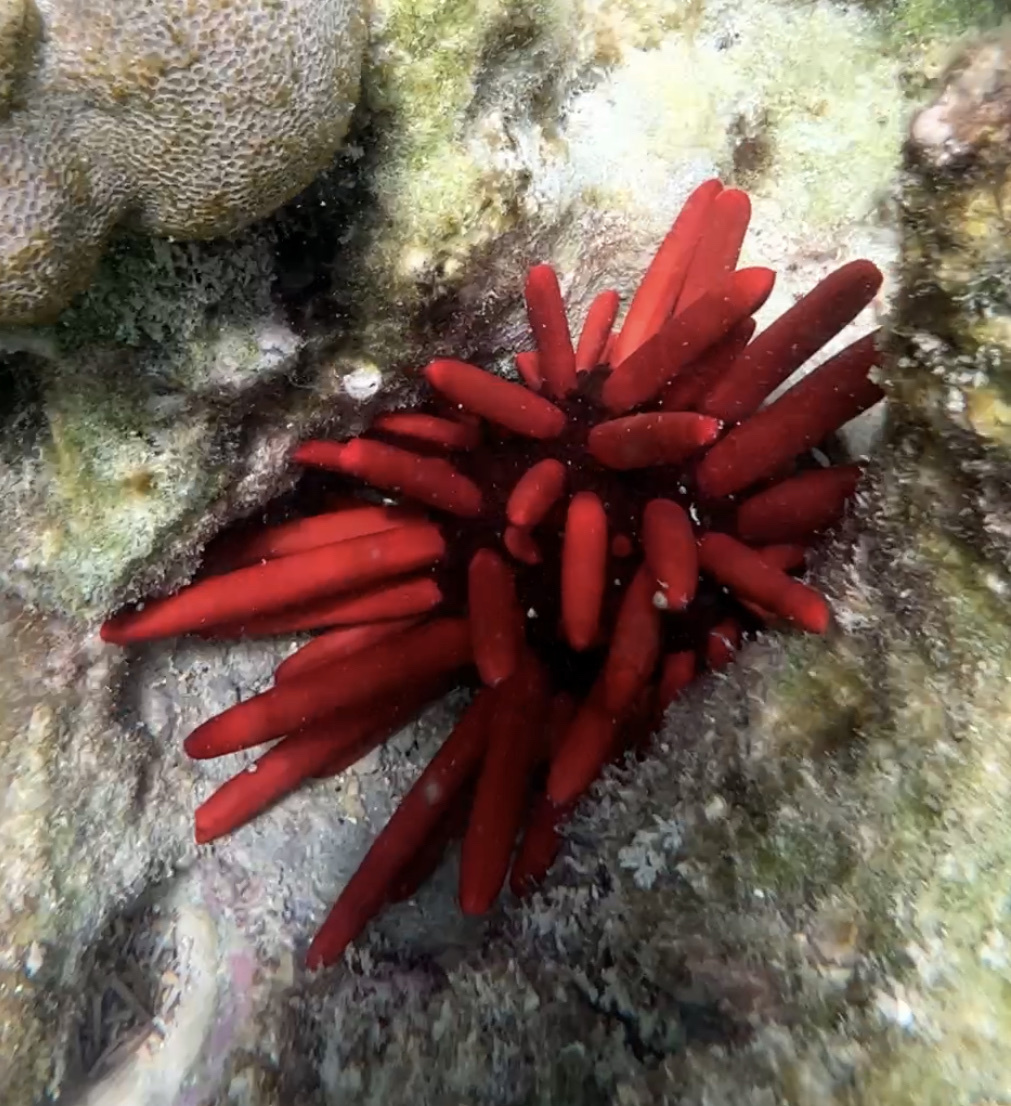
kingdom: Animalia
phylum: Echinodermata
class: Echinoidea
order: Camarodonta
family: Echinometridae
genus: Heterocentrotus
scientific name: Heterocentrotus mamillatus
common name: Slate pencil urchin
